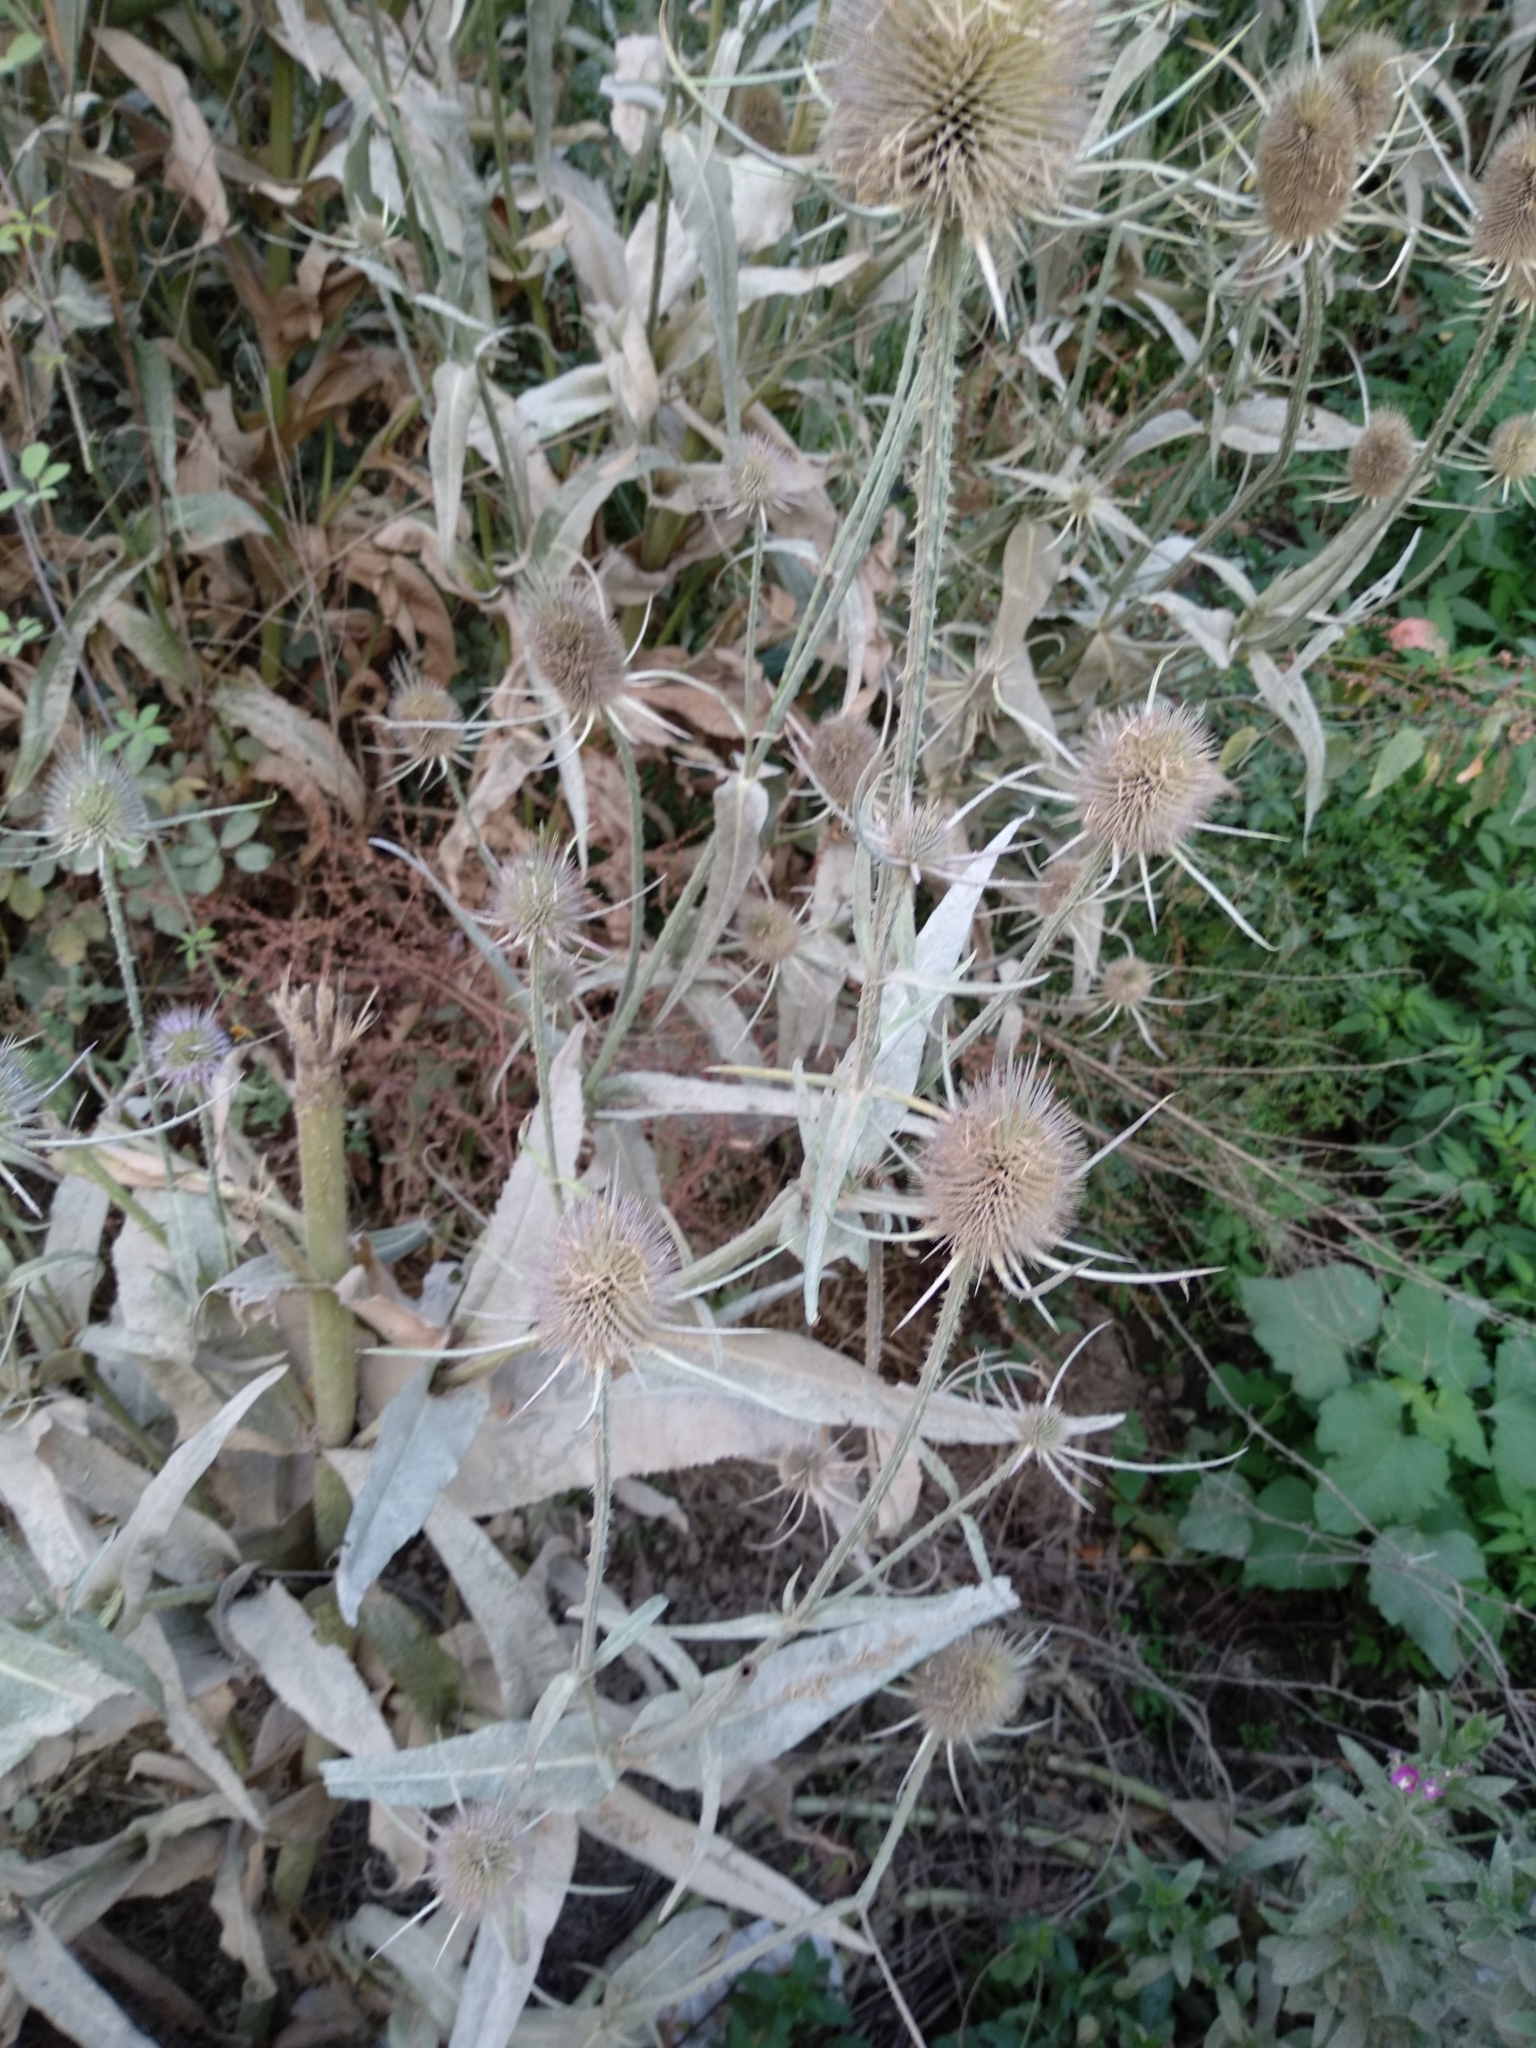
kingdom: Plantae
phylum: Tracheophyta
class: Magnoliopsida
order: Dipsacales
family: Caprifoliaceae
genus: Dipsacus
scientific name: Dipsacus fullonum
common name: Teasel
